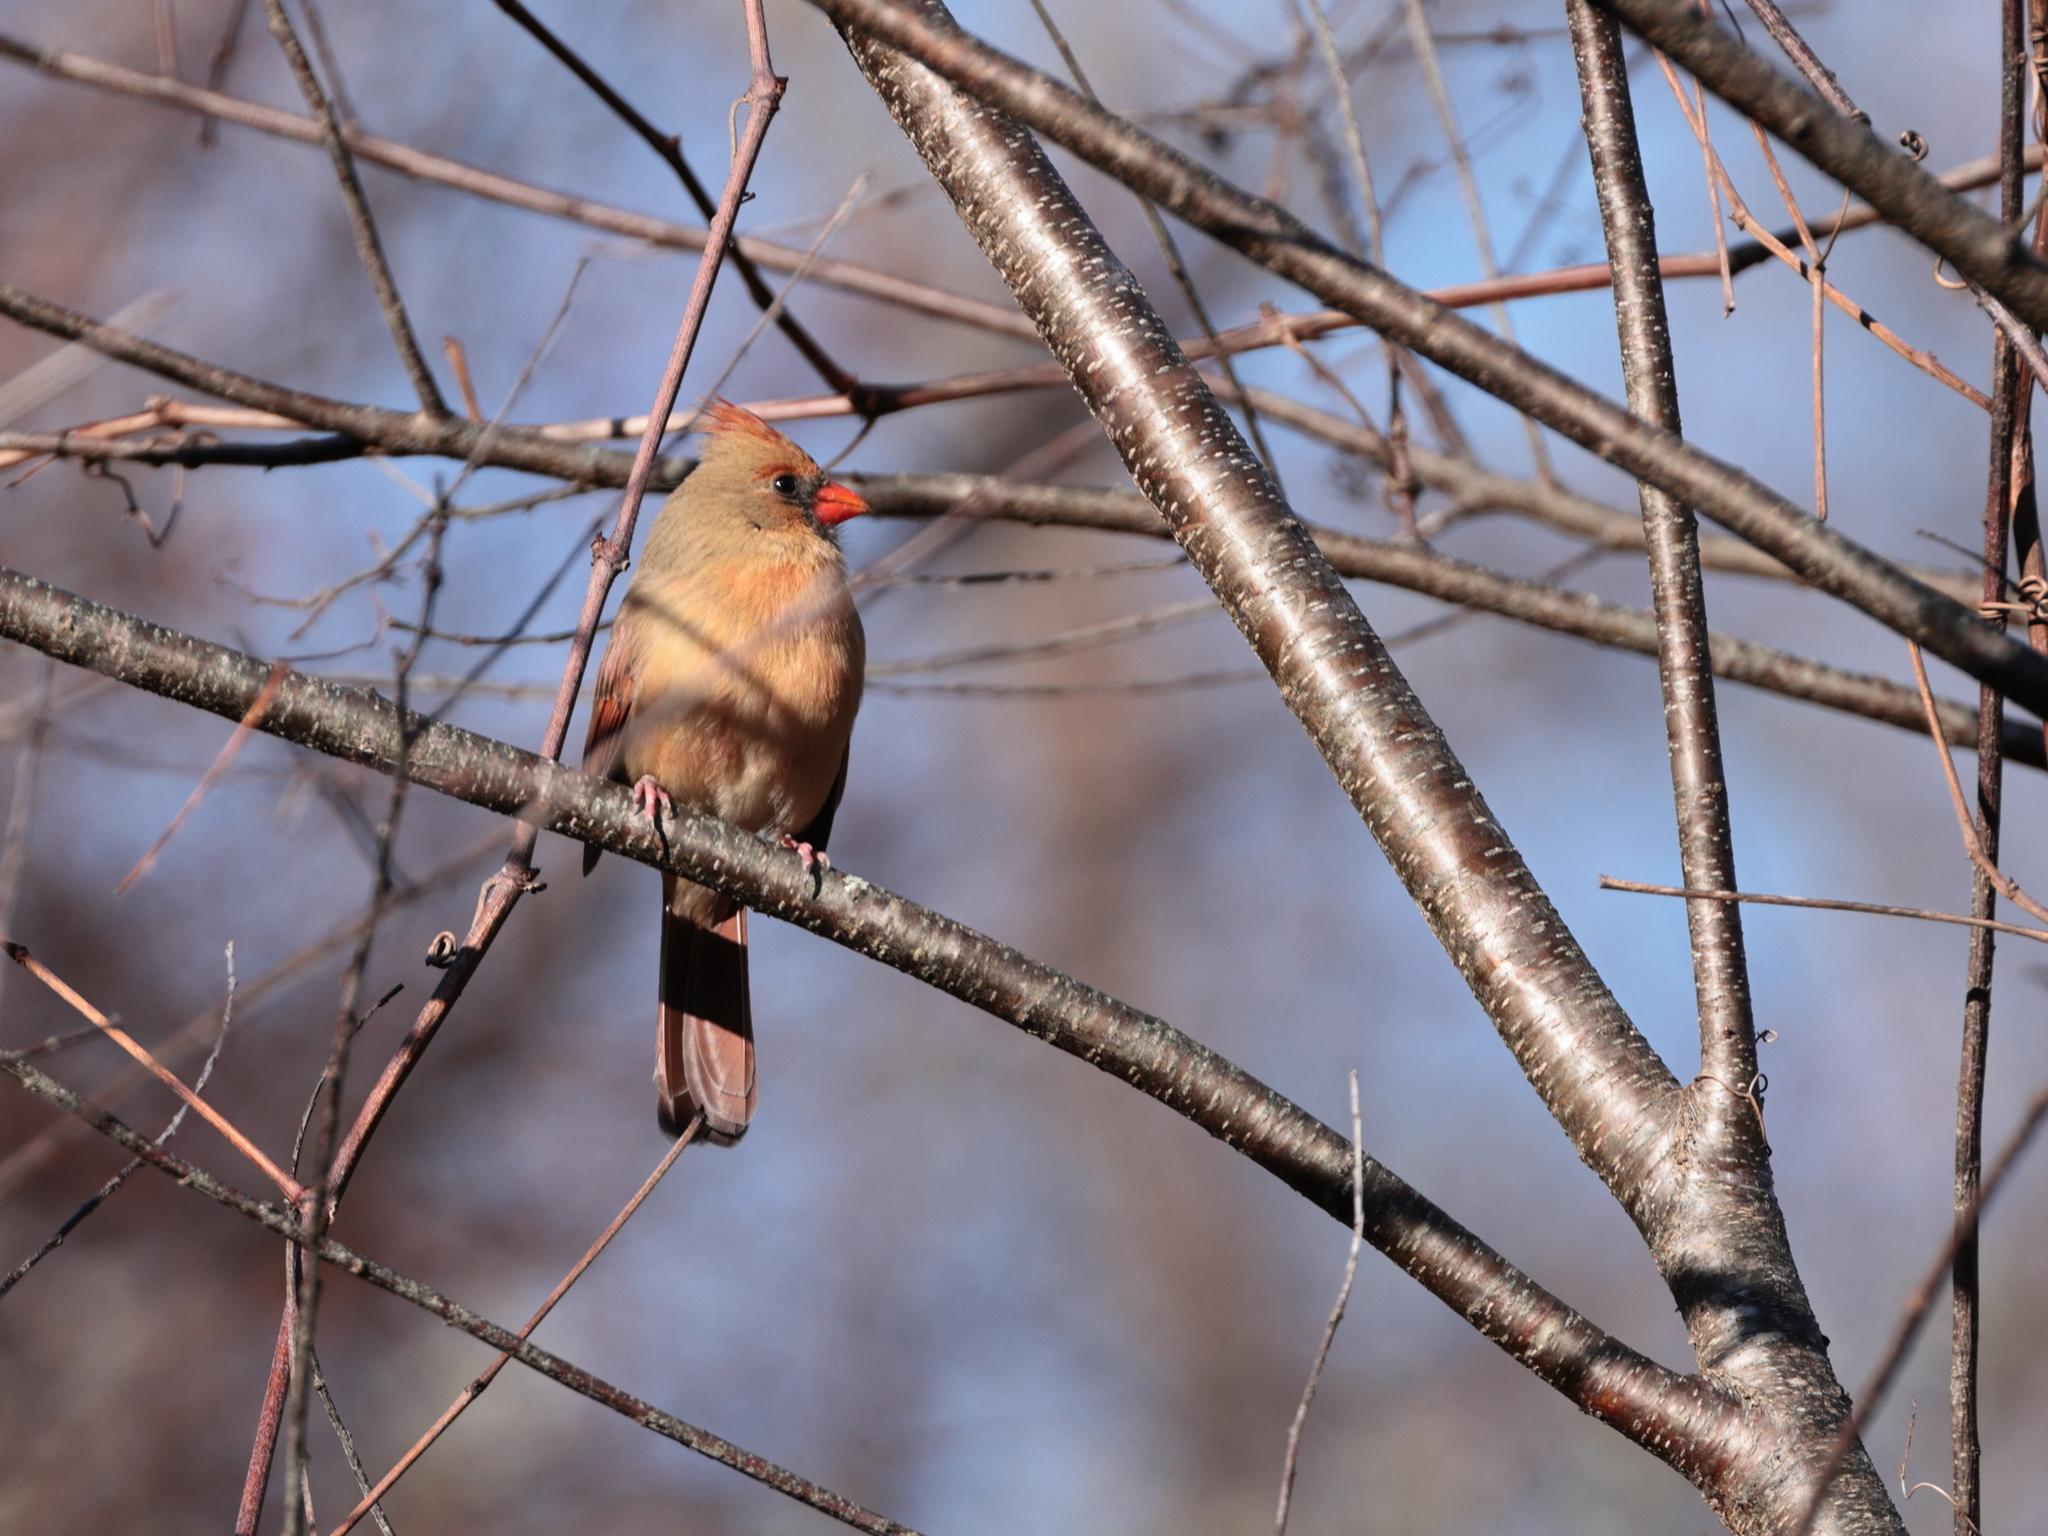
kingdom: Animalia
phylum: Chordata
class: Aves
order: Passeriformes
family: Cardinalidae
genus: Cardinalis
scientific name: Cardinalis cardinalis
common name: Northern cardinal
